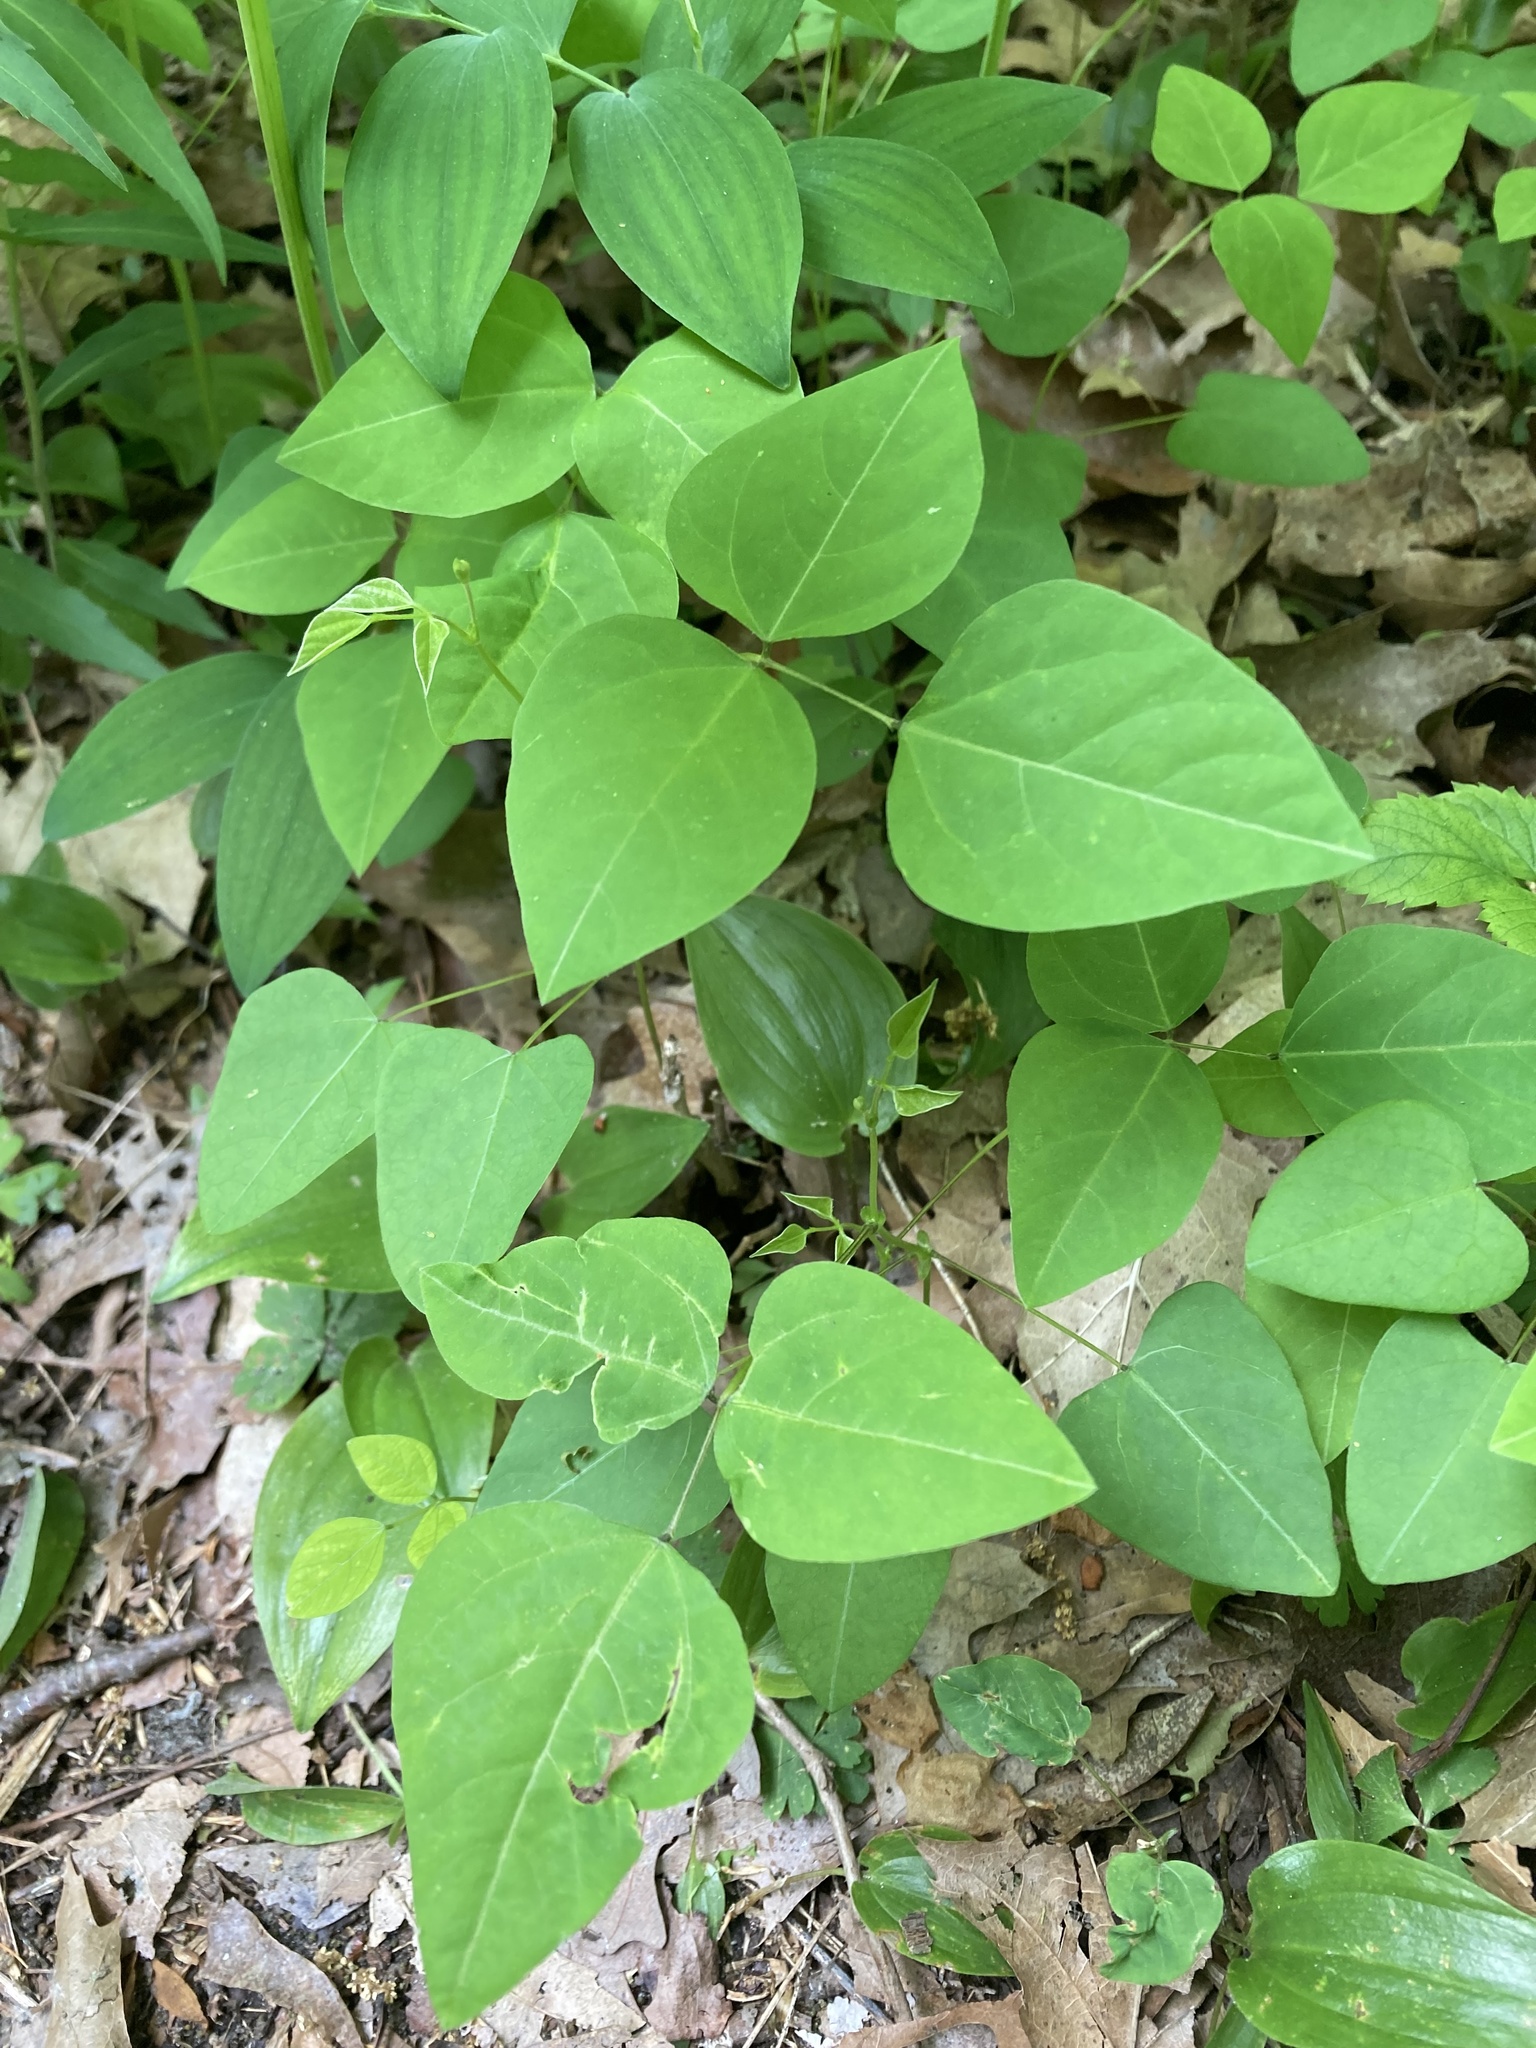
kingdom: Plantae
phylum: Tracheophyta
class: Magnoliopsida
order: Fabales
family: Fabaceae
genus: Amphicarpaea
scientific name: Amphicarpaea bracteata
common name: American hog peanut
